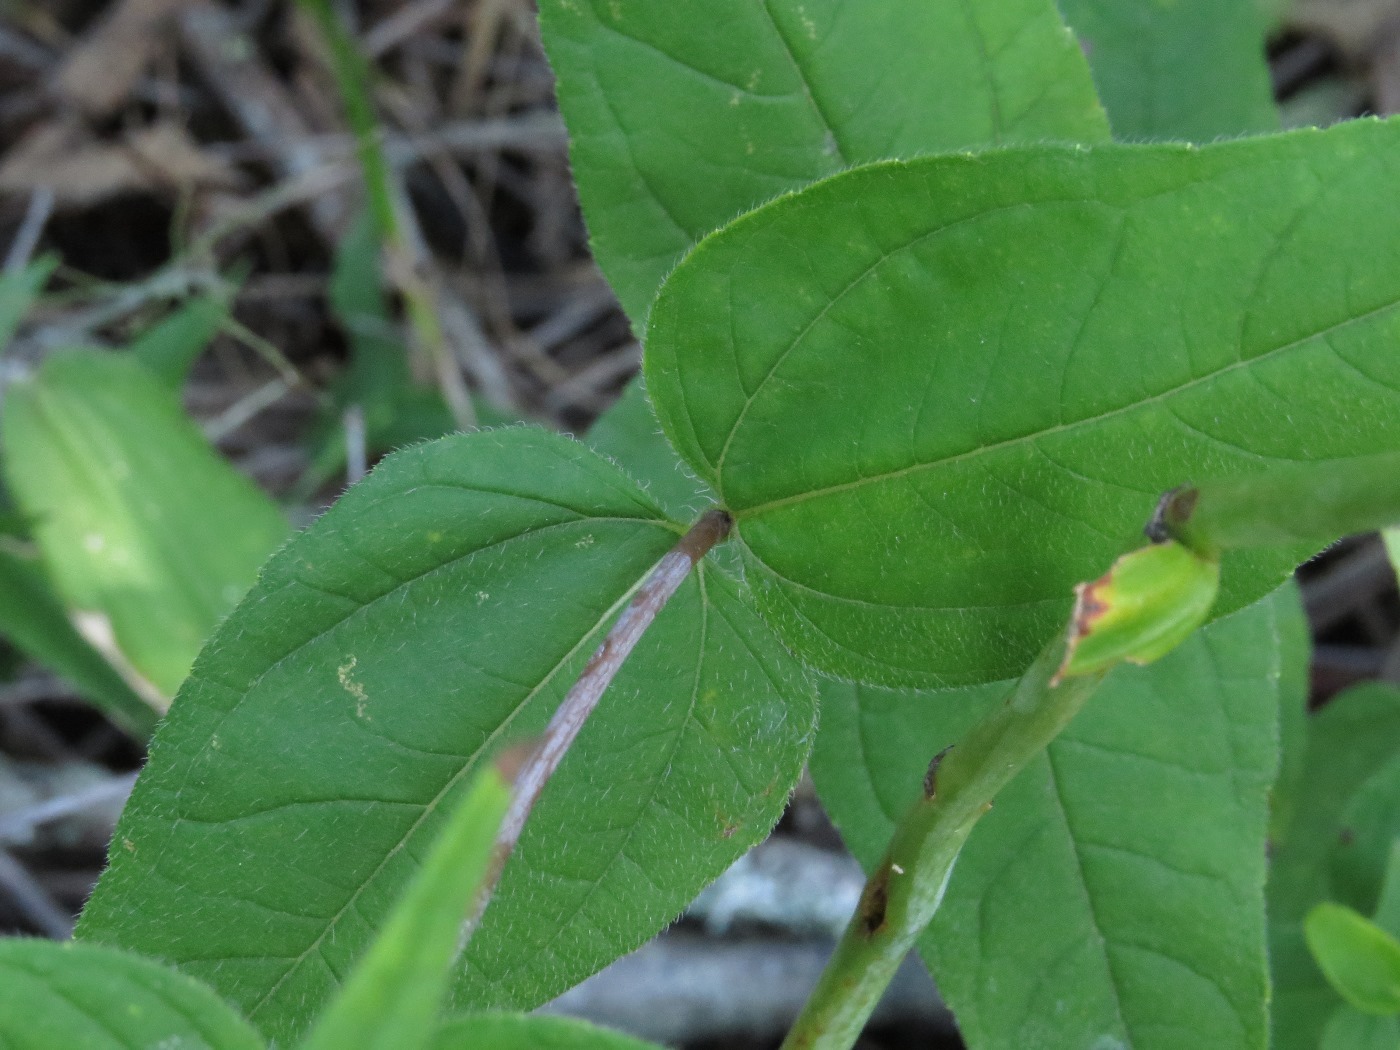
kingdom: Plantae
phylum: Tracheophyta
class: Magnoliopsida
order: Asterales
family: Asteraceae
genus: Helianthus
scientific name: Helianthus divaricatus
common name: Divergent sunflower
